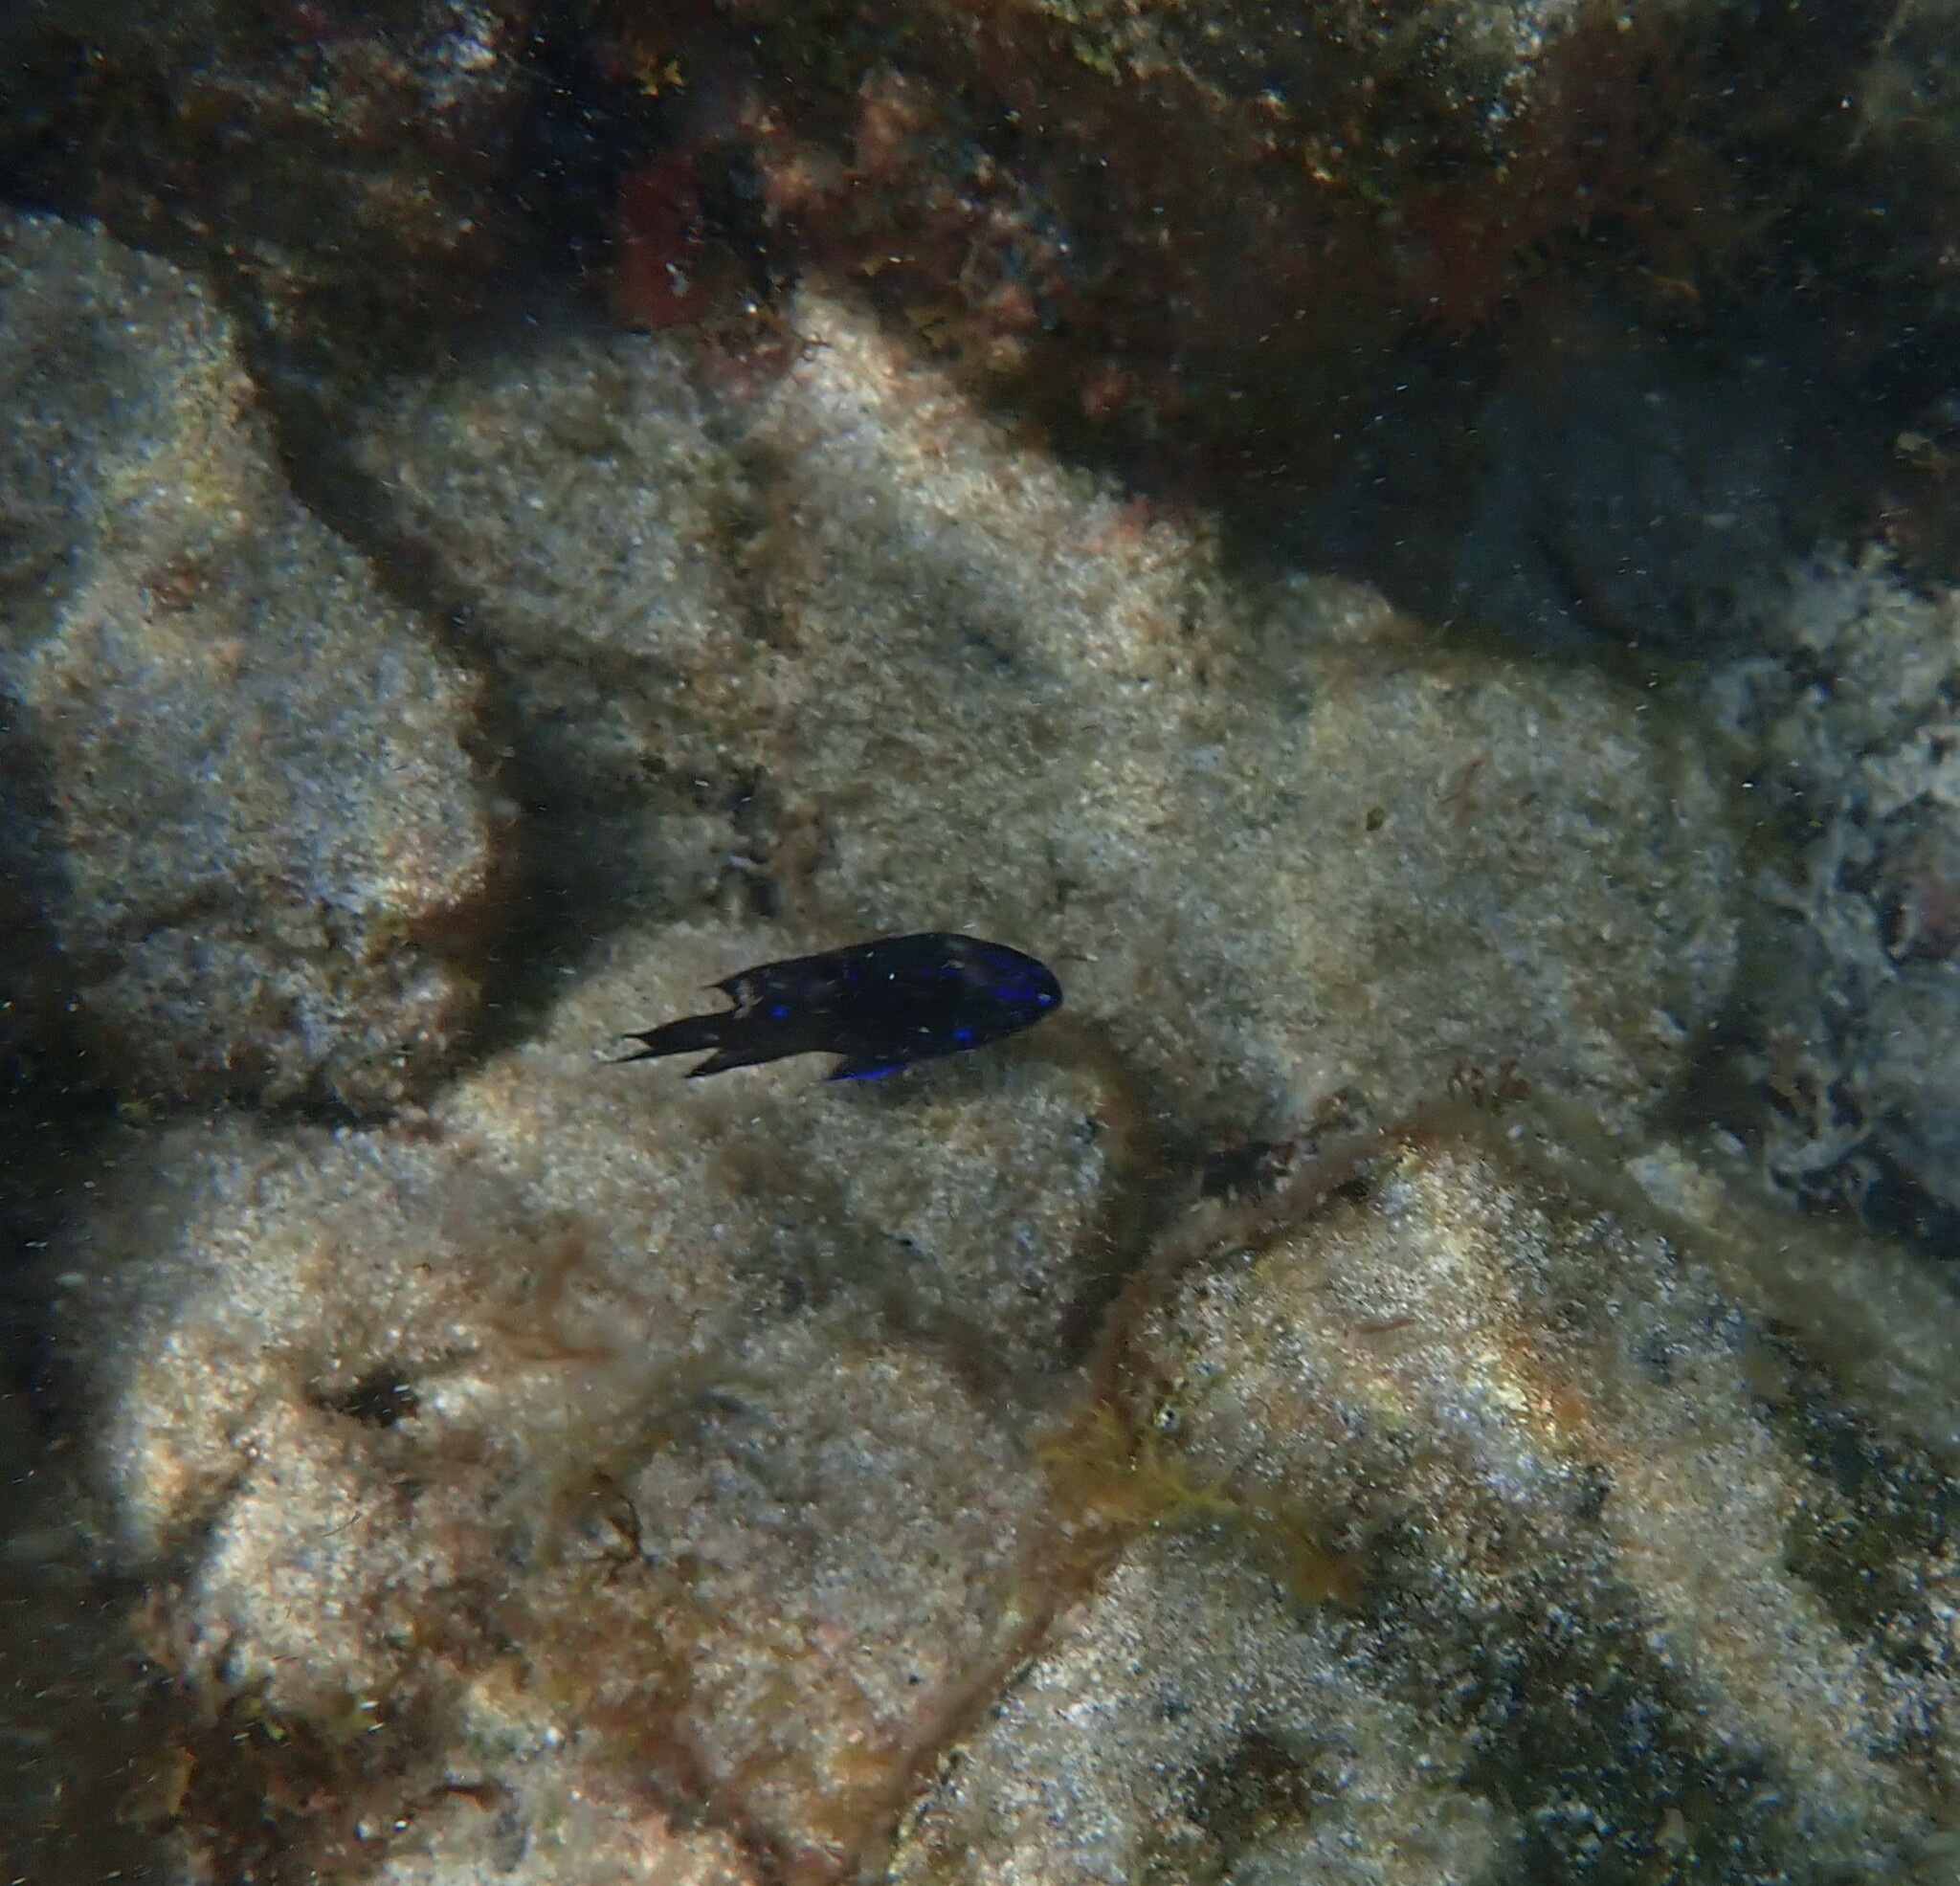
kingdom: Animalia
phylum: Chordata
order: Perciformes
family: Pomacentridae
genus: Similiparma
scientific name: Similiparma lurida
